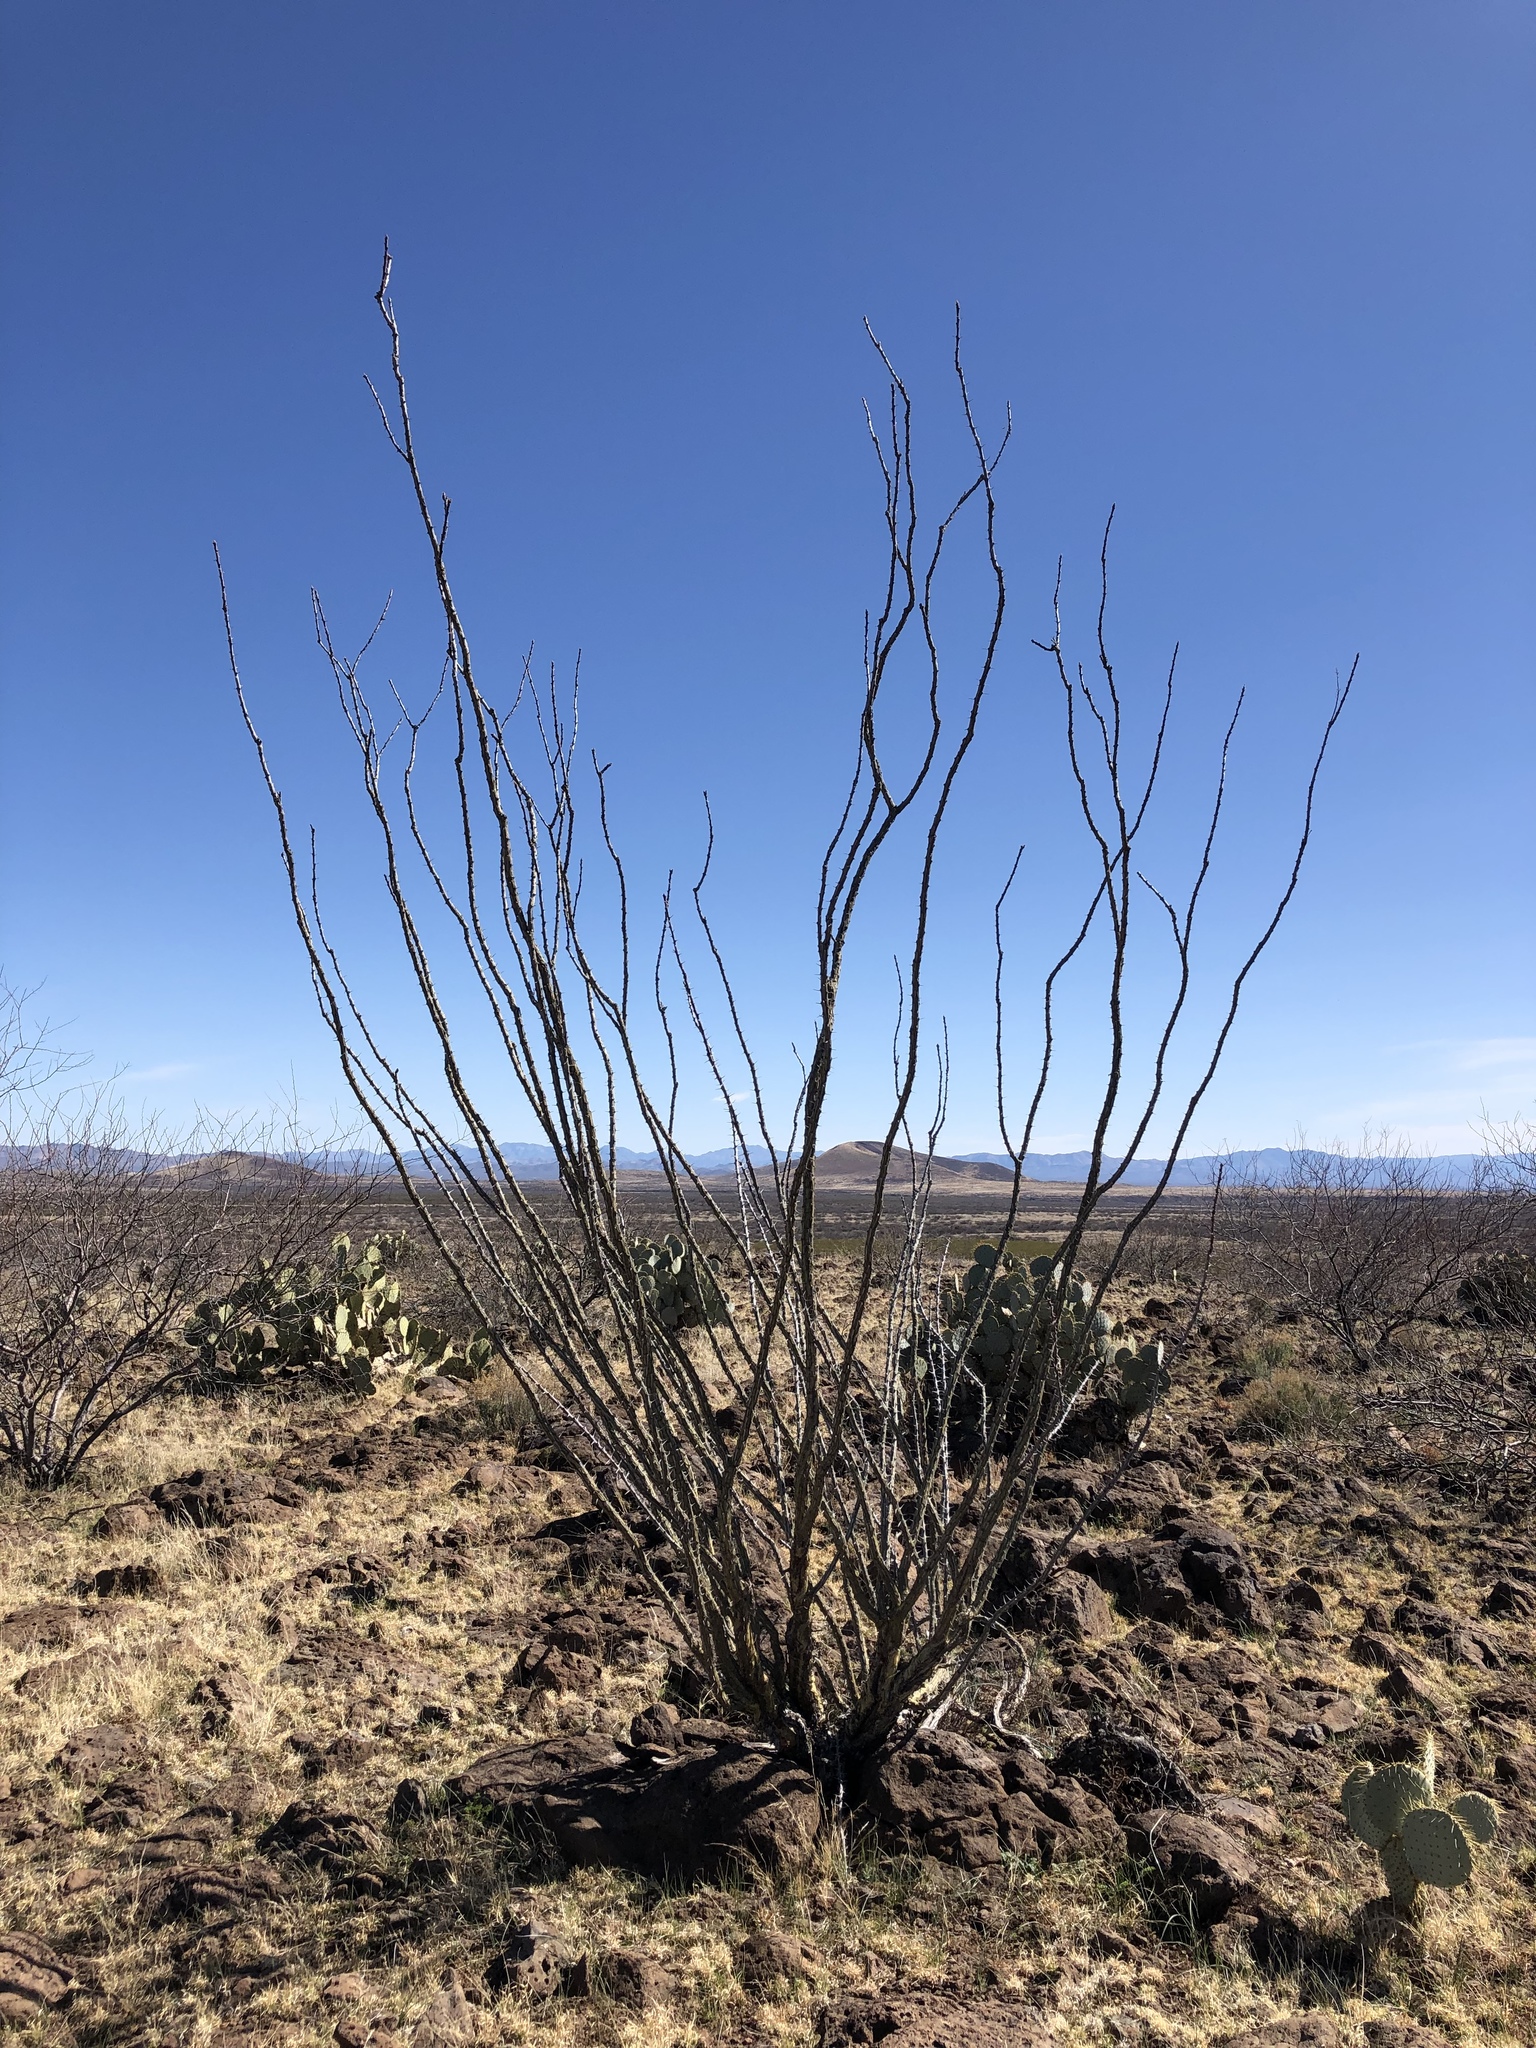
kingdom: Plantae
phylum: Tracheophyta
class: Magnoliopsida
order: Ericales
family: Fouquieriaceae
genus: Fouquieria
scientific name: Fouquieria splendens
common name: Vine-cactus
